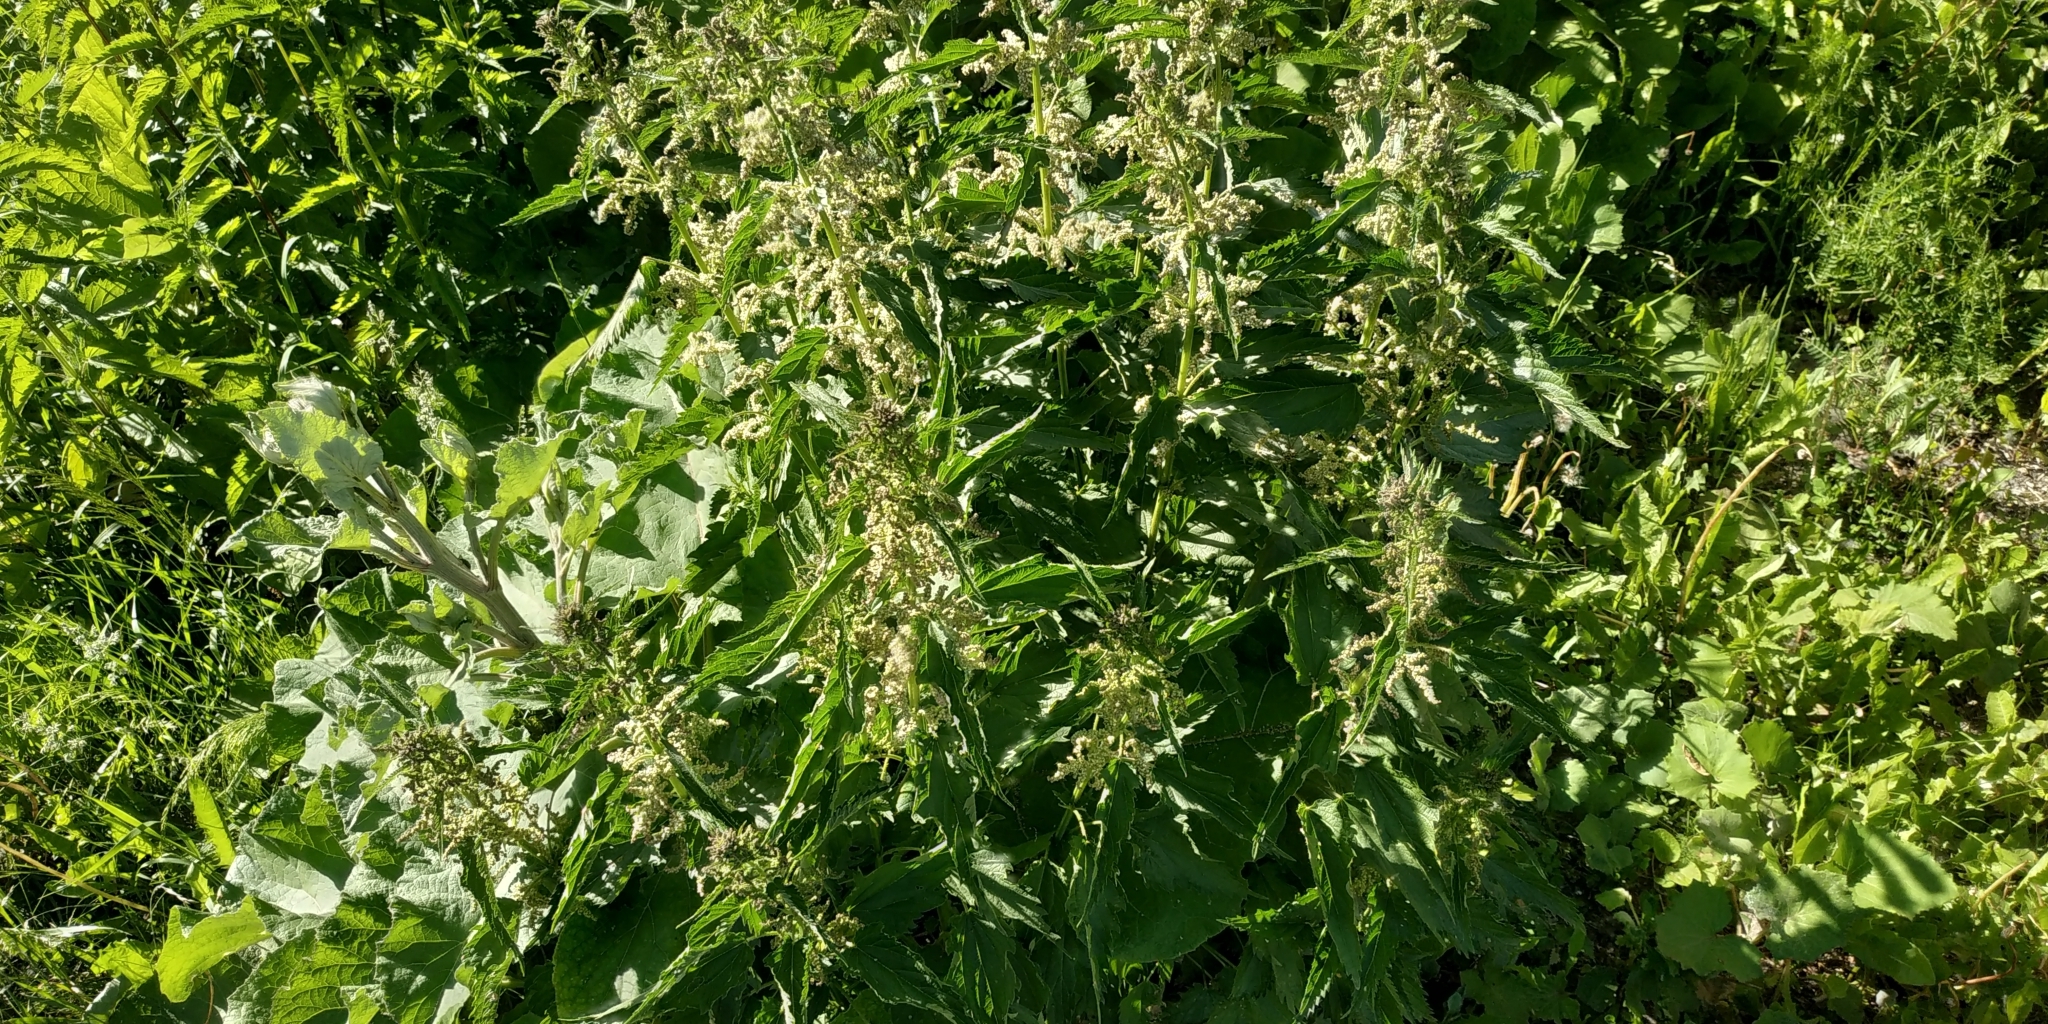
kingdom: Plantae
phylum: Tracheophyta
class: Magnoliopsida
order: Rosales
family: Urticaceae
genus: Urtica
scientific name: Urtica dioica
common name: Common nettle
